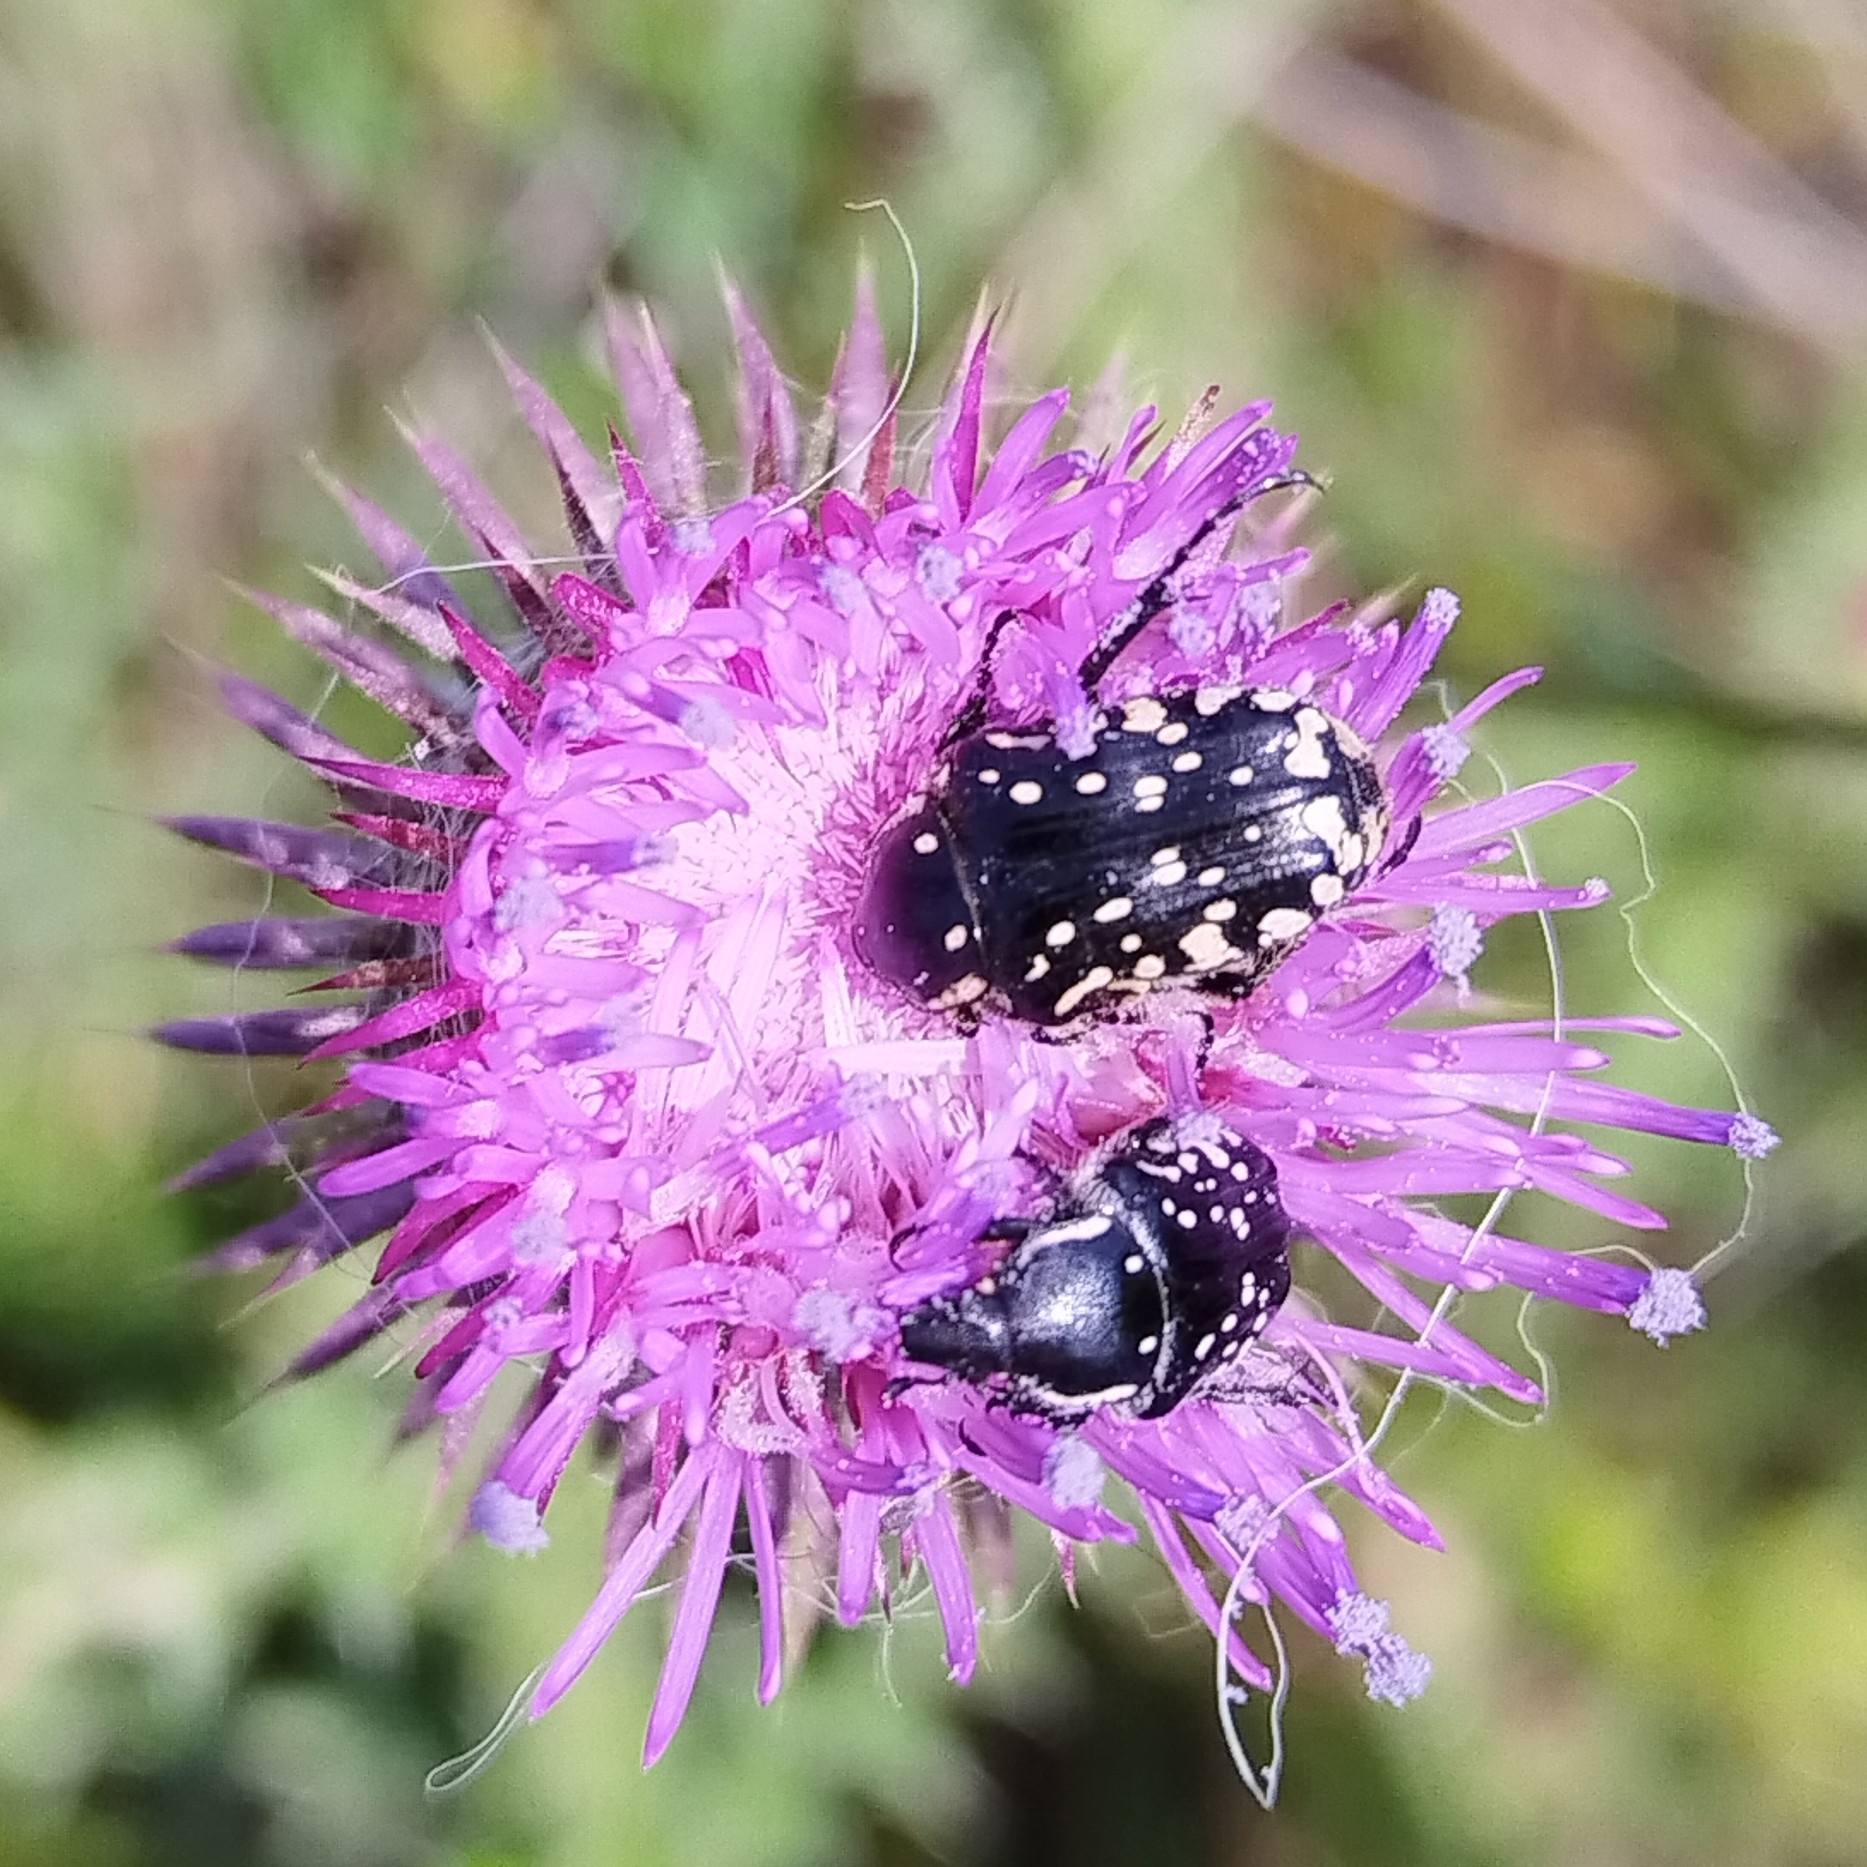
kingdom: Animalia
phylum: Arthropoda
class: Insecta
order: Coleoptera
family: Scarabaeidae
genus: Oxythyrea
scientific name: Oxythyrea cinctella
